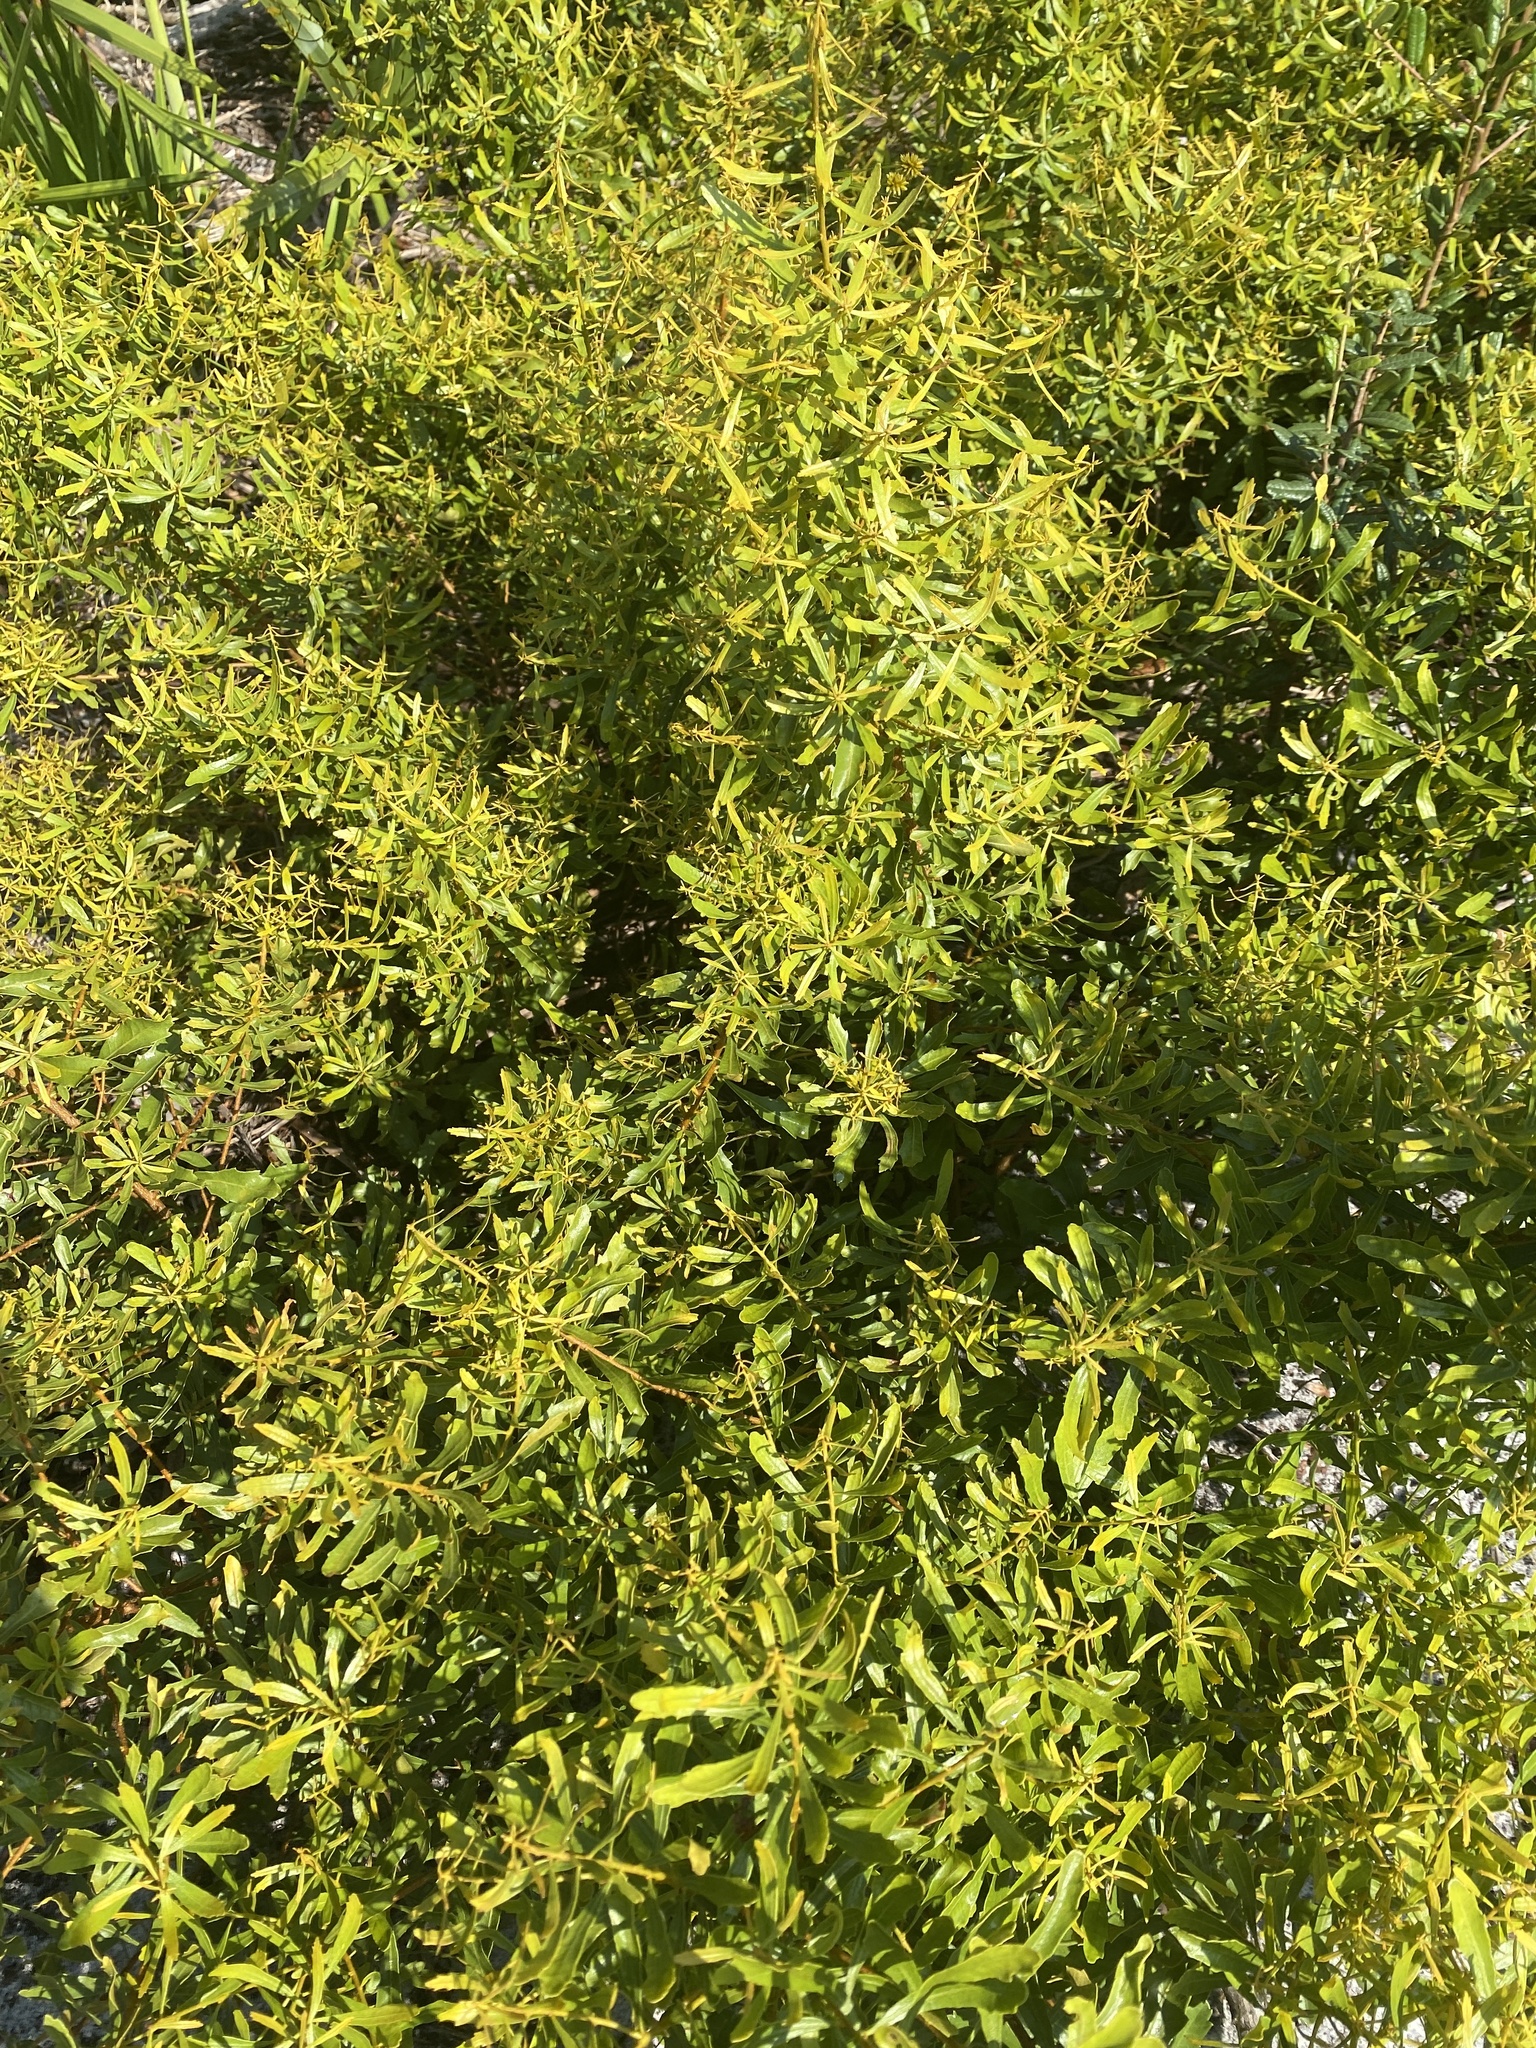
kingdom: Plantae
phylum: Tracheophyta
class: Magnoliopsida
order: Fagales
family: Myricaceae
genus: Morella
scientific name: Morella cerifera
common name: Wax myrtle
